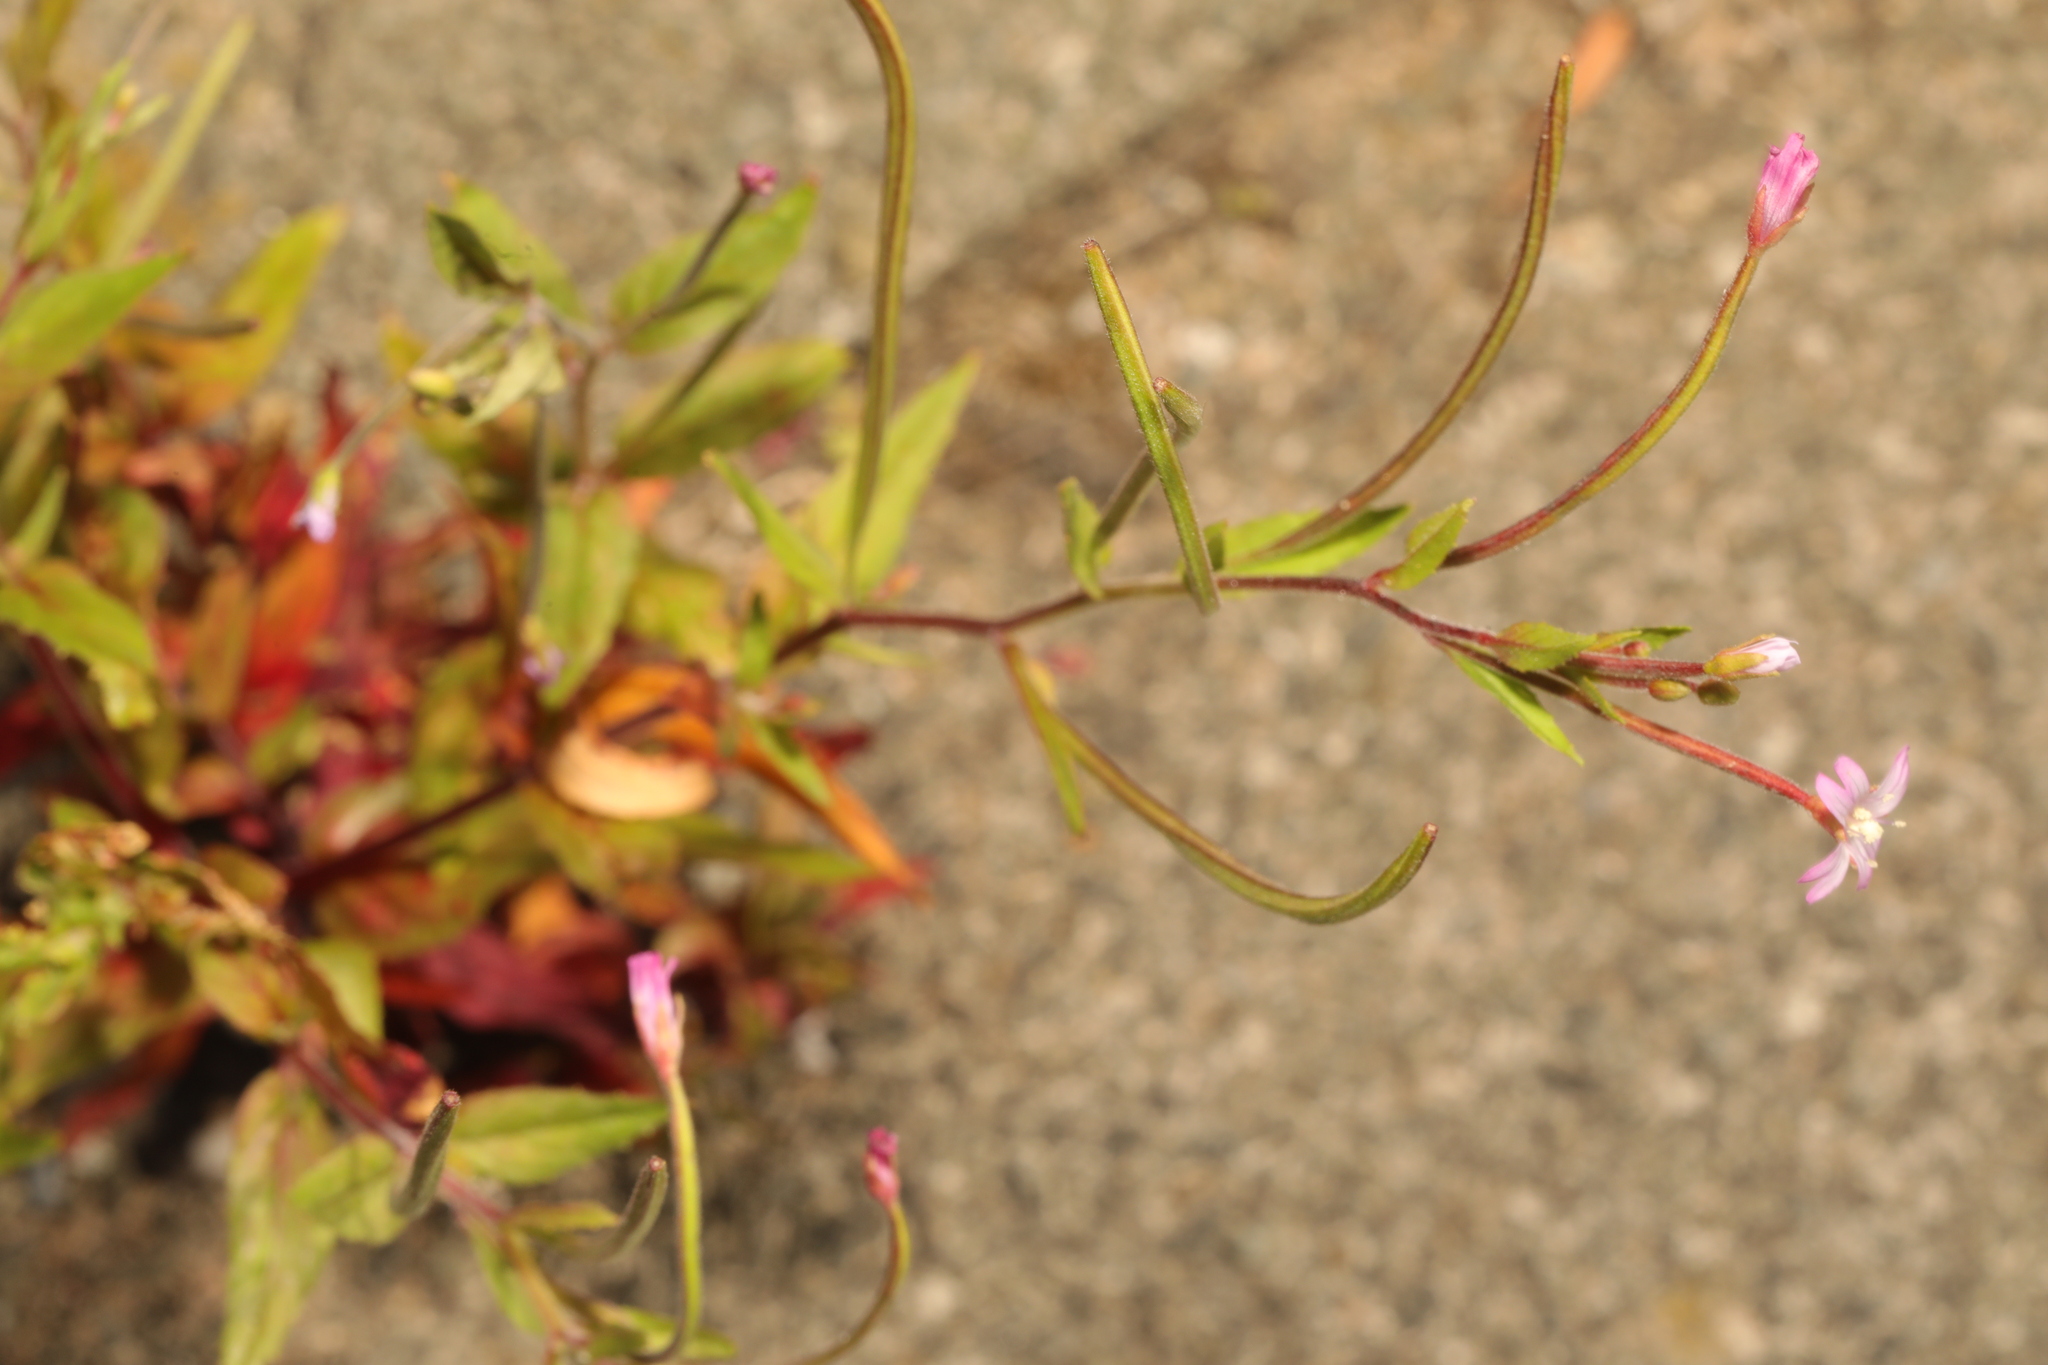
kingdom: Plantae
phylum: Tracheophyta
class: Magnoliopsida
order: Myrtales
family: Onagraceae
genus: Epilobium
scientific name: Epilobium ciliatum
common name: American willowherb
